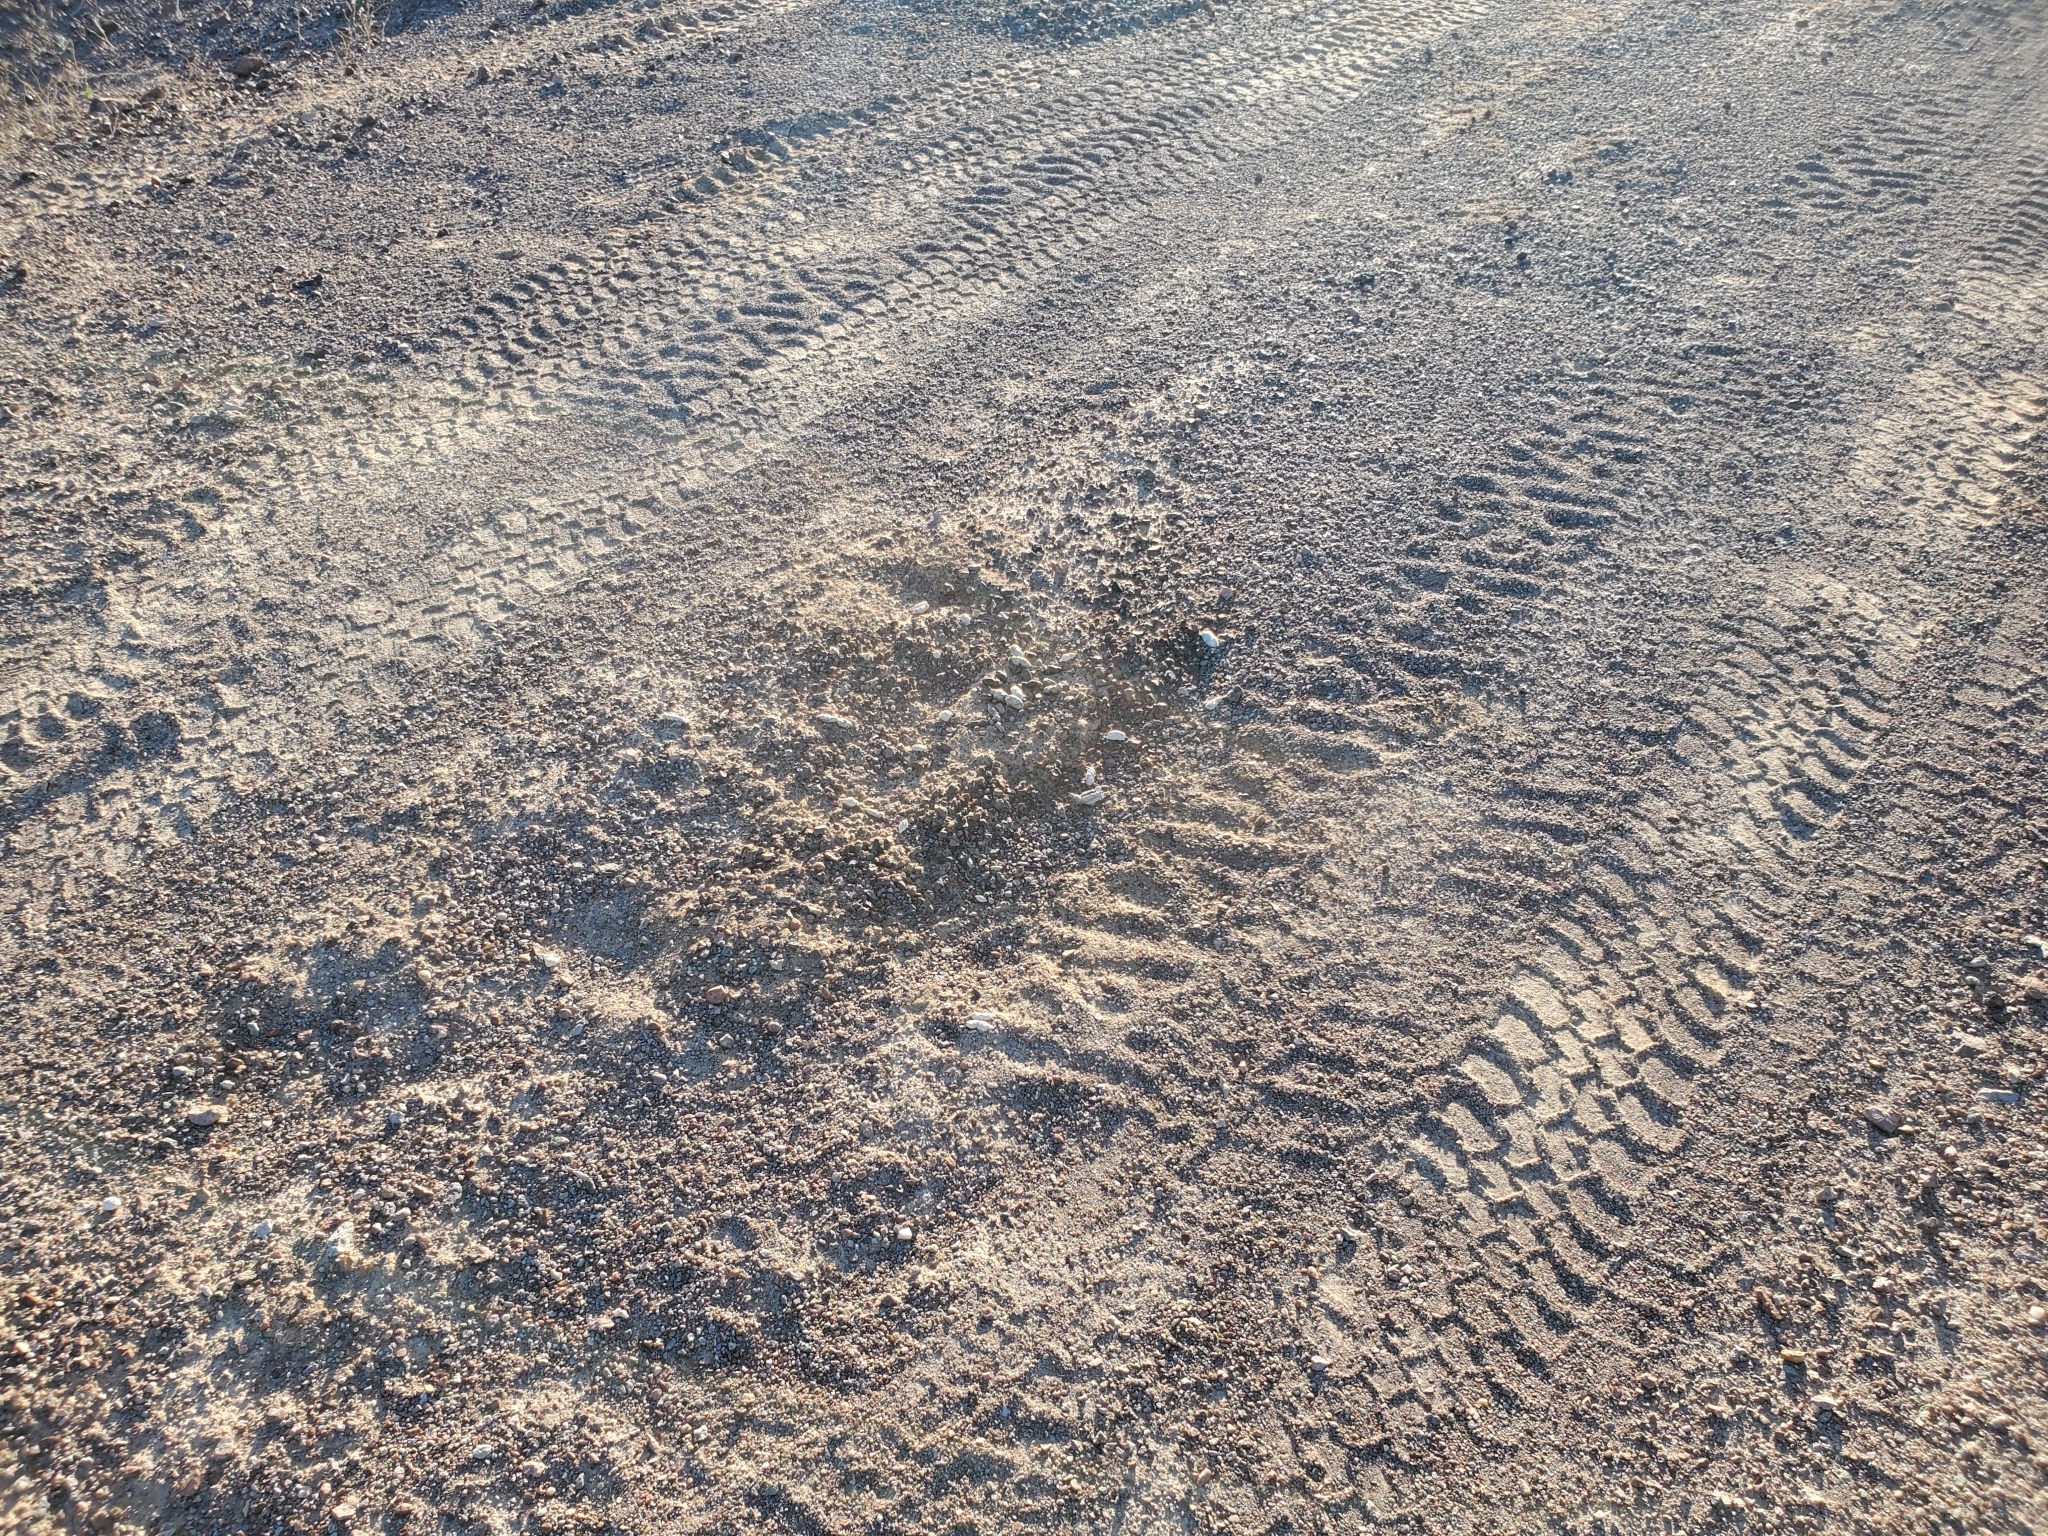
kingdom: Animalia
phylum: Chordata
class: Mammalia
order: Carnivora
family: Felidae
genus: Lynx
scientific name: Lynx rufus
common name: Bobcat
